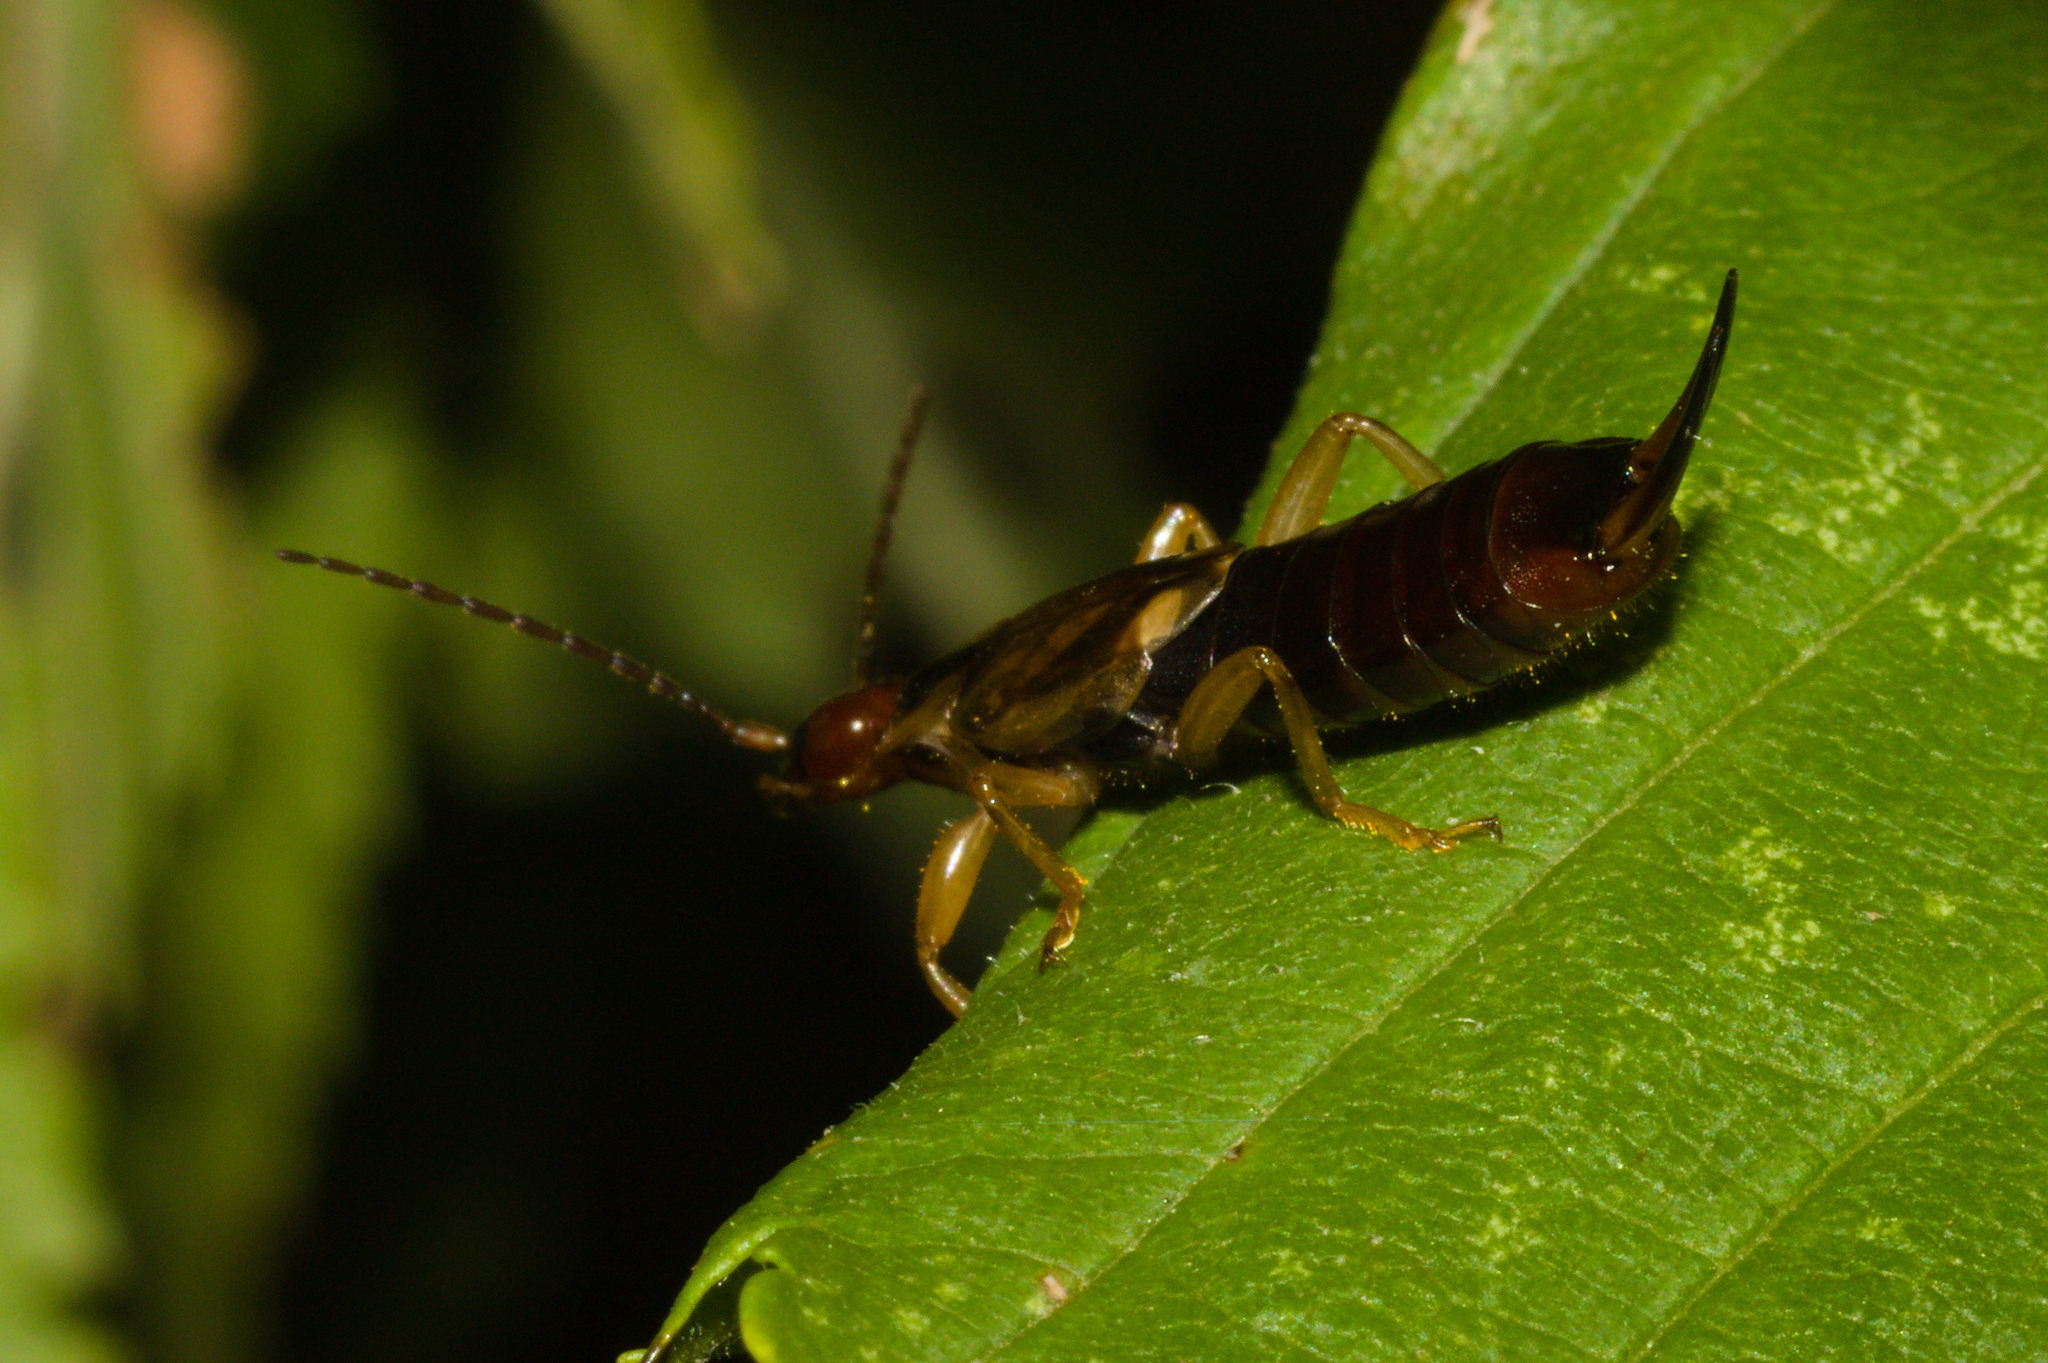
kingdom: Animalia
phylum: Arthropoda
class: Insecta
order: Dermaptera
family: Forficulidae
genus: Forficula
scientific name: Forficula
